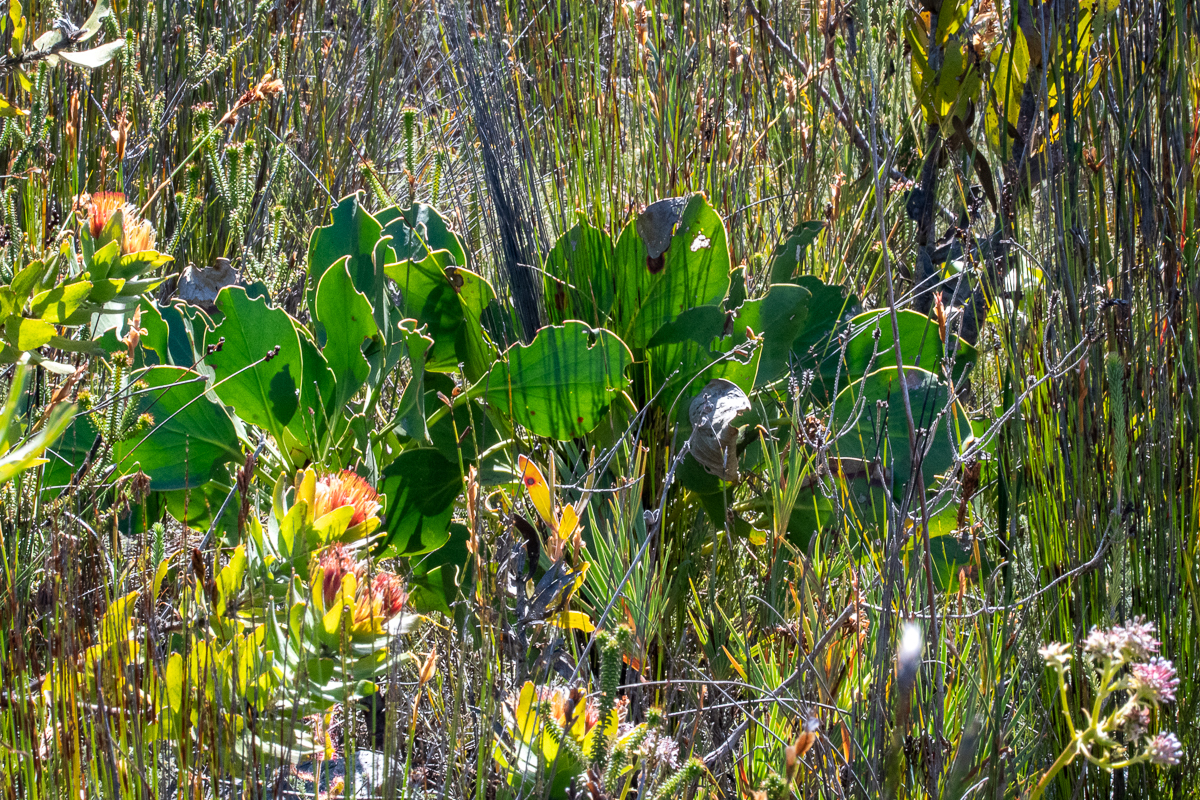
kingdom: Plantae
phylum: Tracheophyta
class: Magnoliopsida
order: Proteales
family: Proteaceae
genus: Protea
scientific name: Protea cynaroides
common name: King protea
